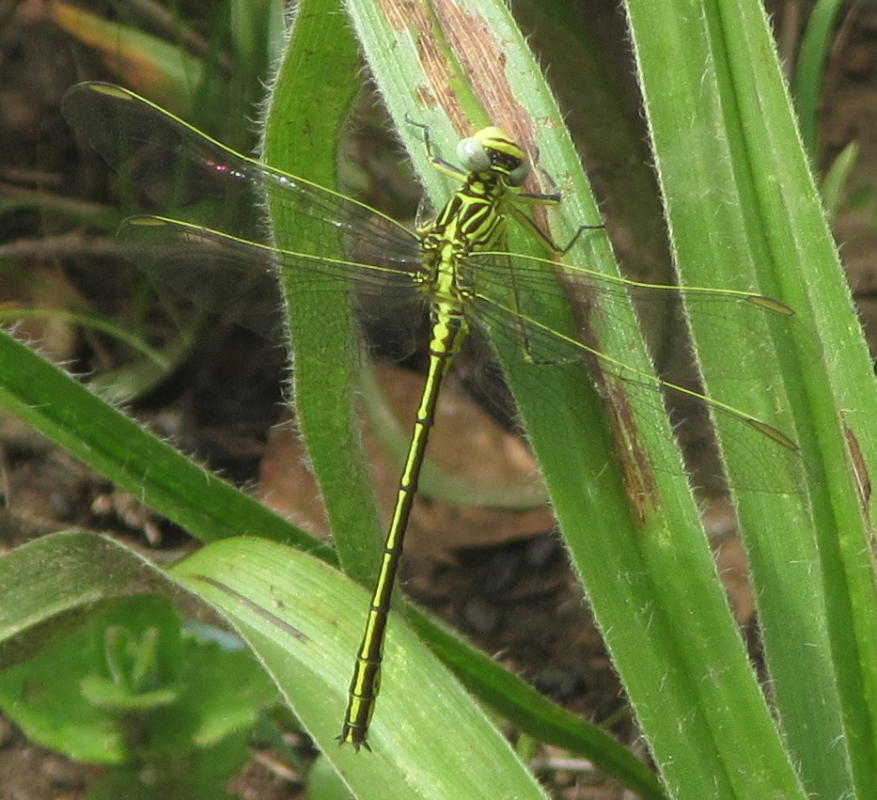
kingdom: Animalia
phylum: Arthropoda
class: Insecta
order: Odonata
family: Gomphidae
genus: Notogomphus
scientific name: Notogomphus praetorius
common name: Southern yellowjack
